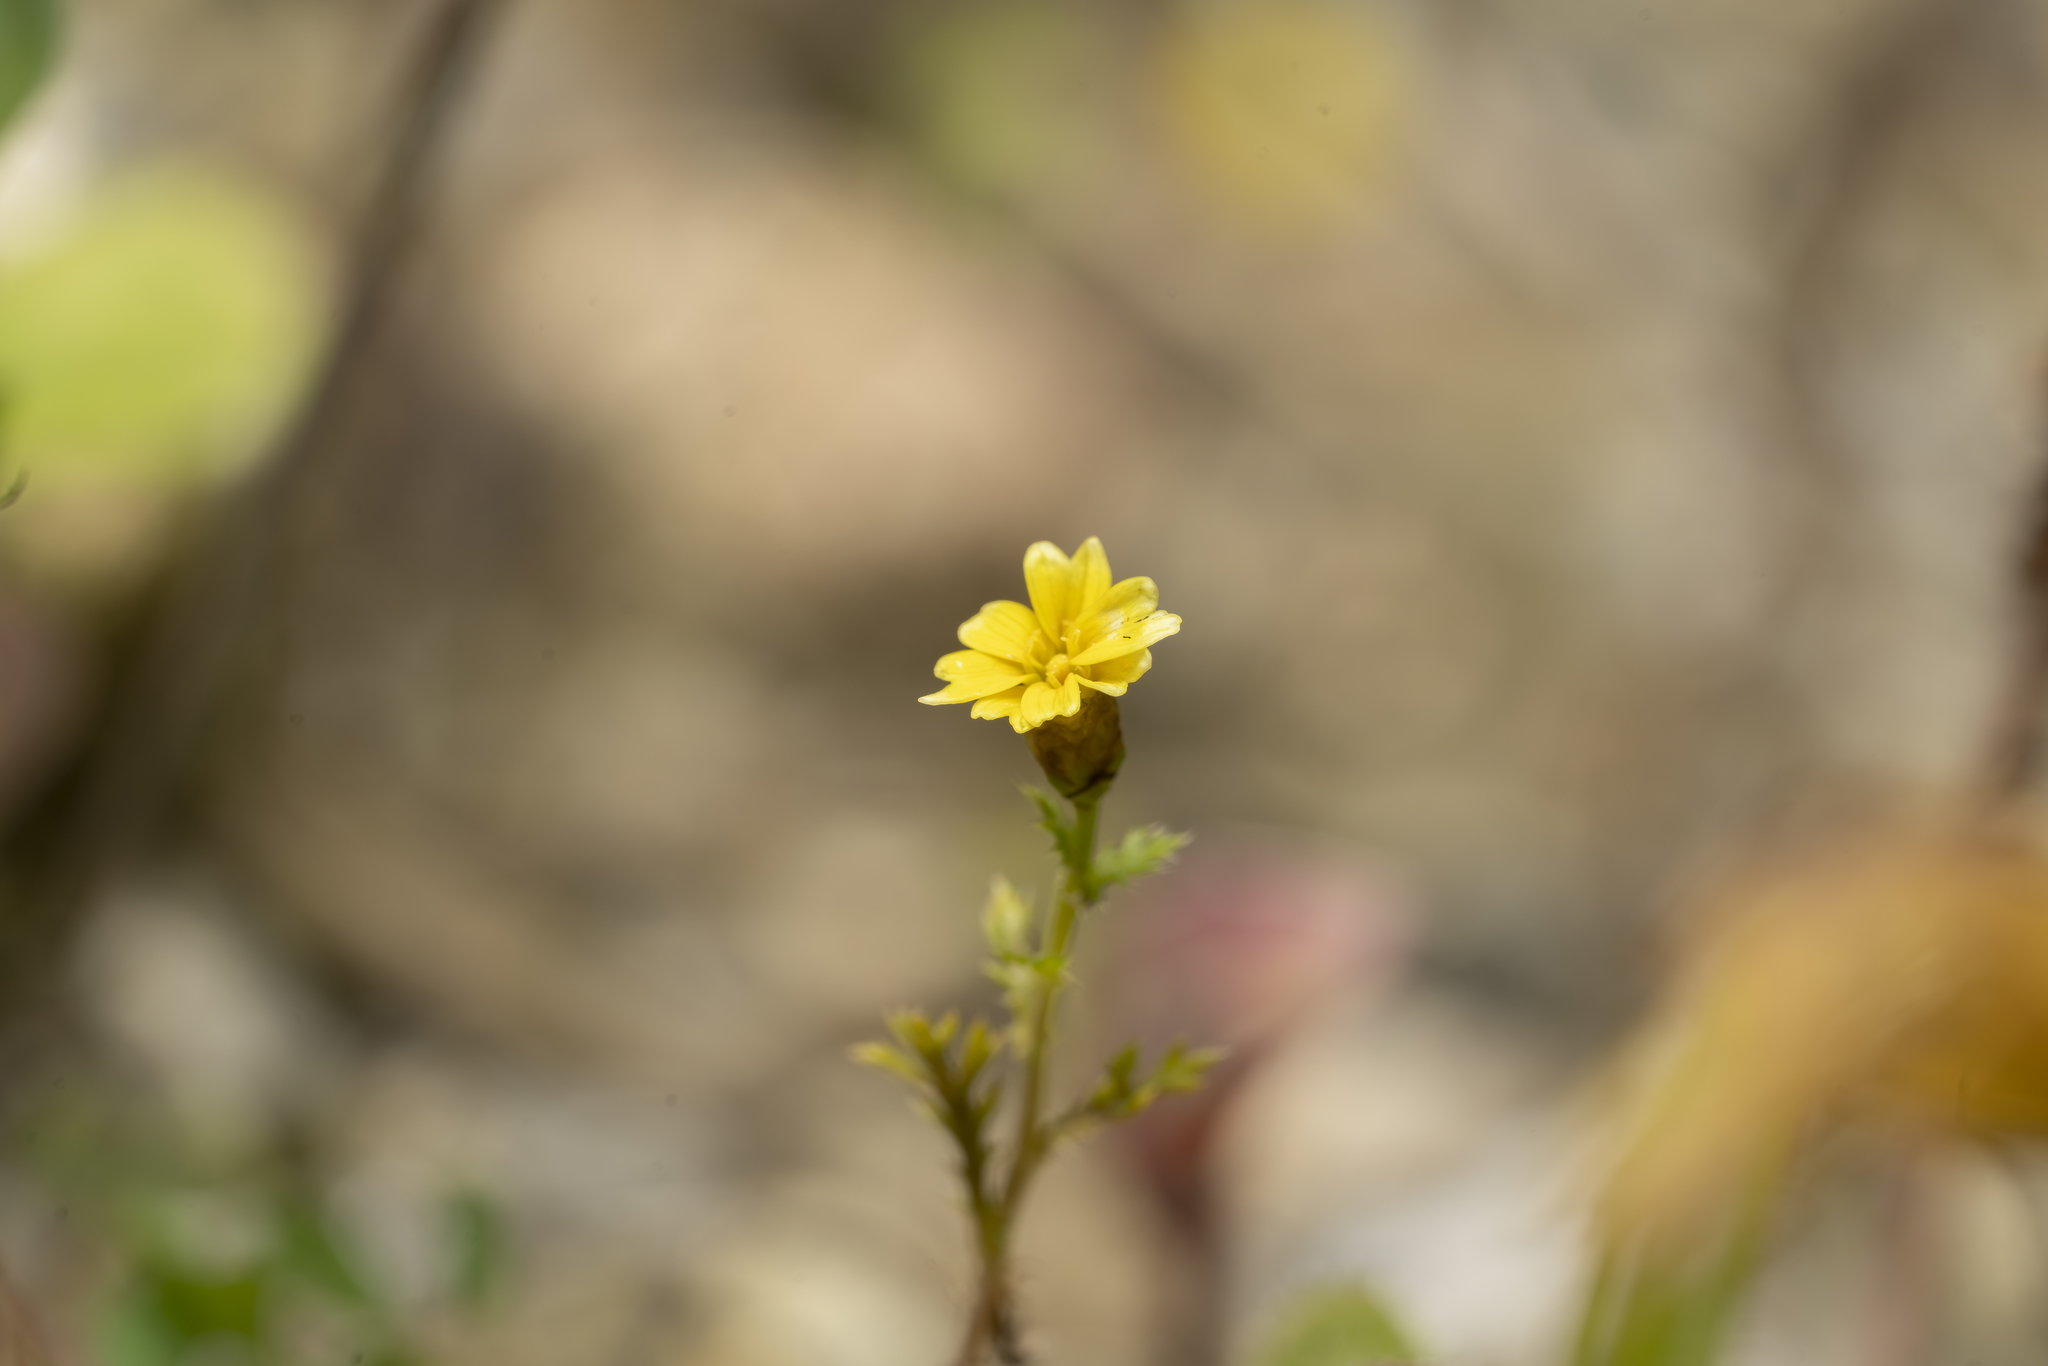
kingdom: Plantae
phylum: Tracheophyta
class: Magnoliopsida
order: Asterales
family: Asteraceae
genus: Glebionis
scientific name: Glebionis coronaria
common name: Crowndaisy
